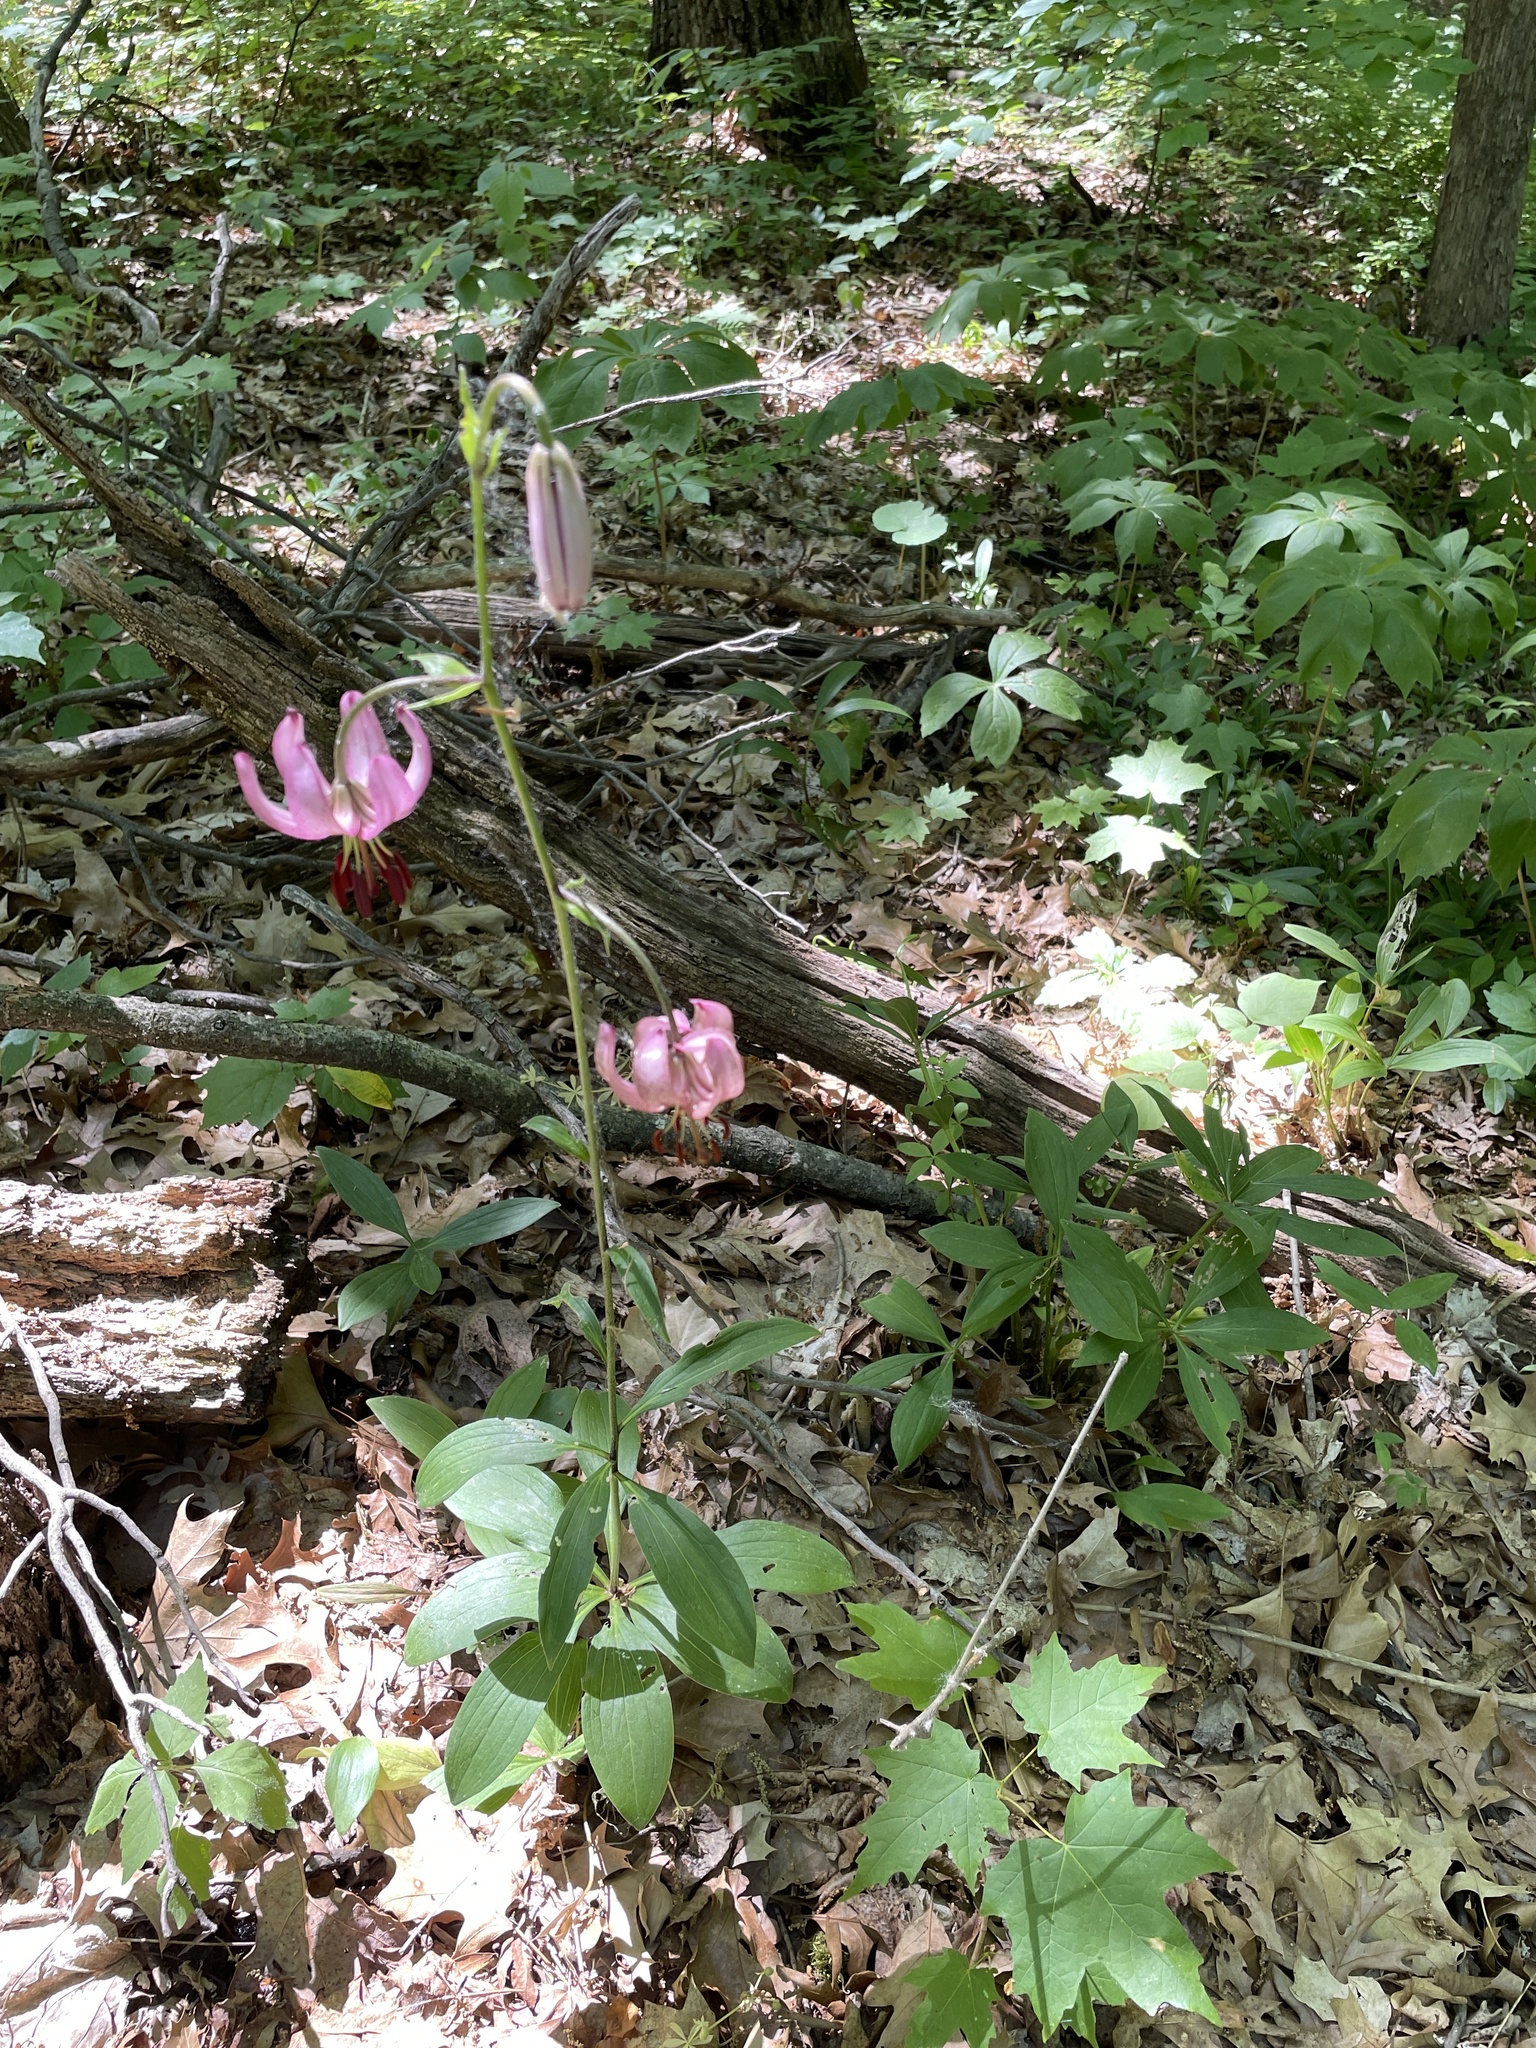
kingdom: Plantae
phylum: Tracheophyta
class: Liliopsida
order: Liliales
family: Liliaceae
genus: Lilium
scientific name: Lilium martagon
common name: Martagon lily
